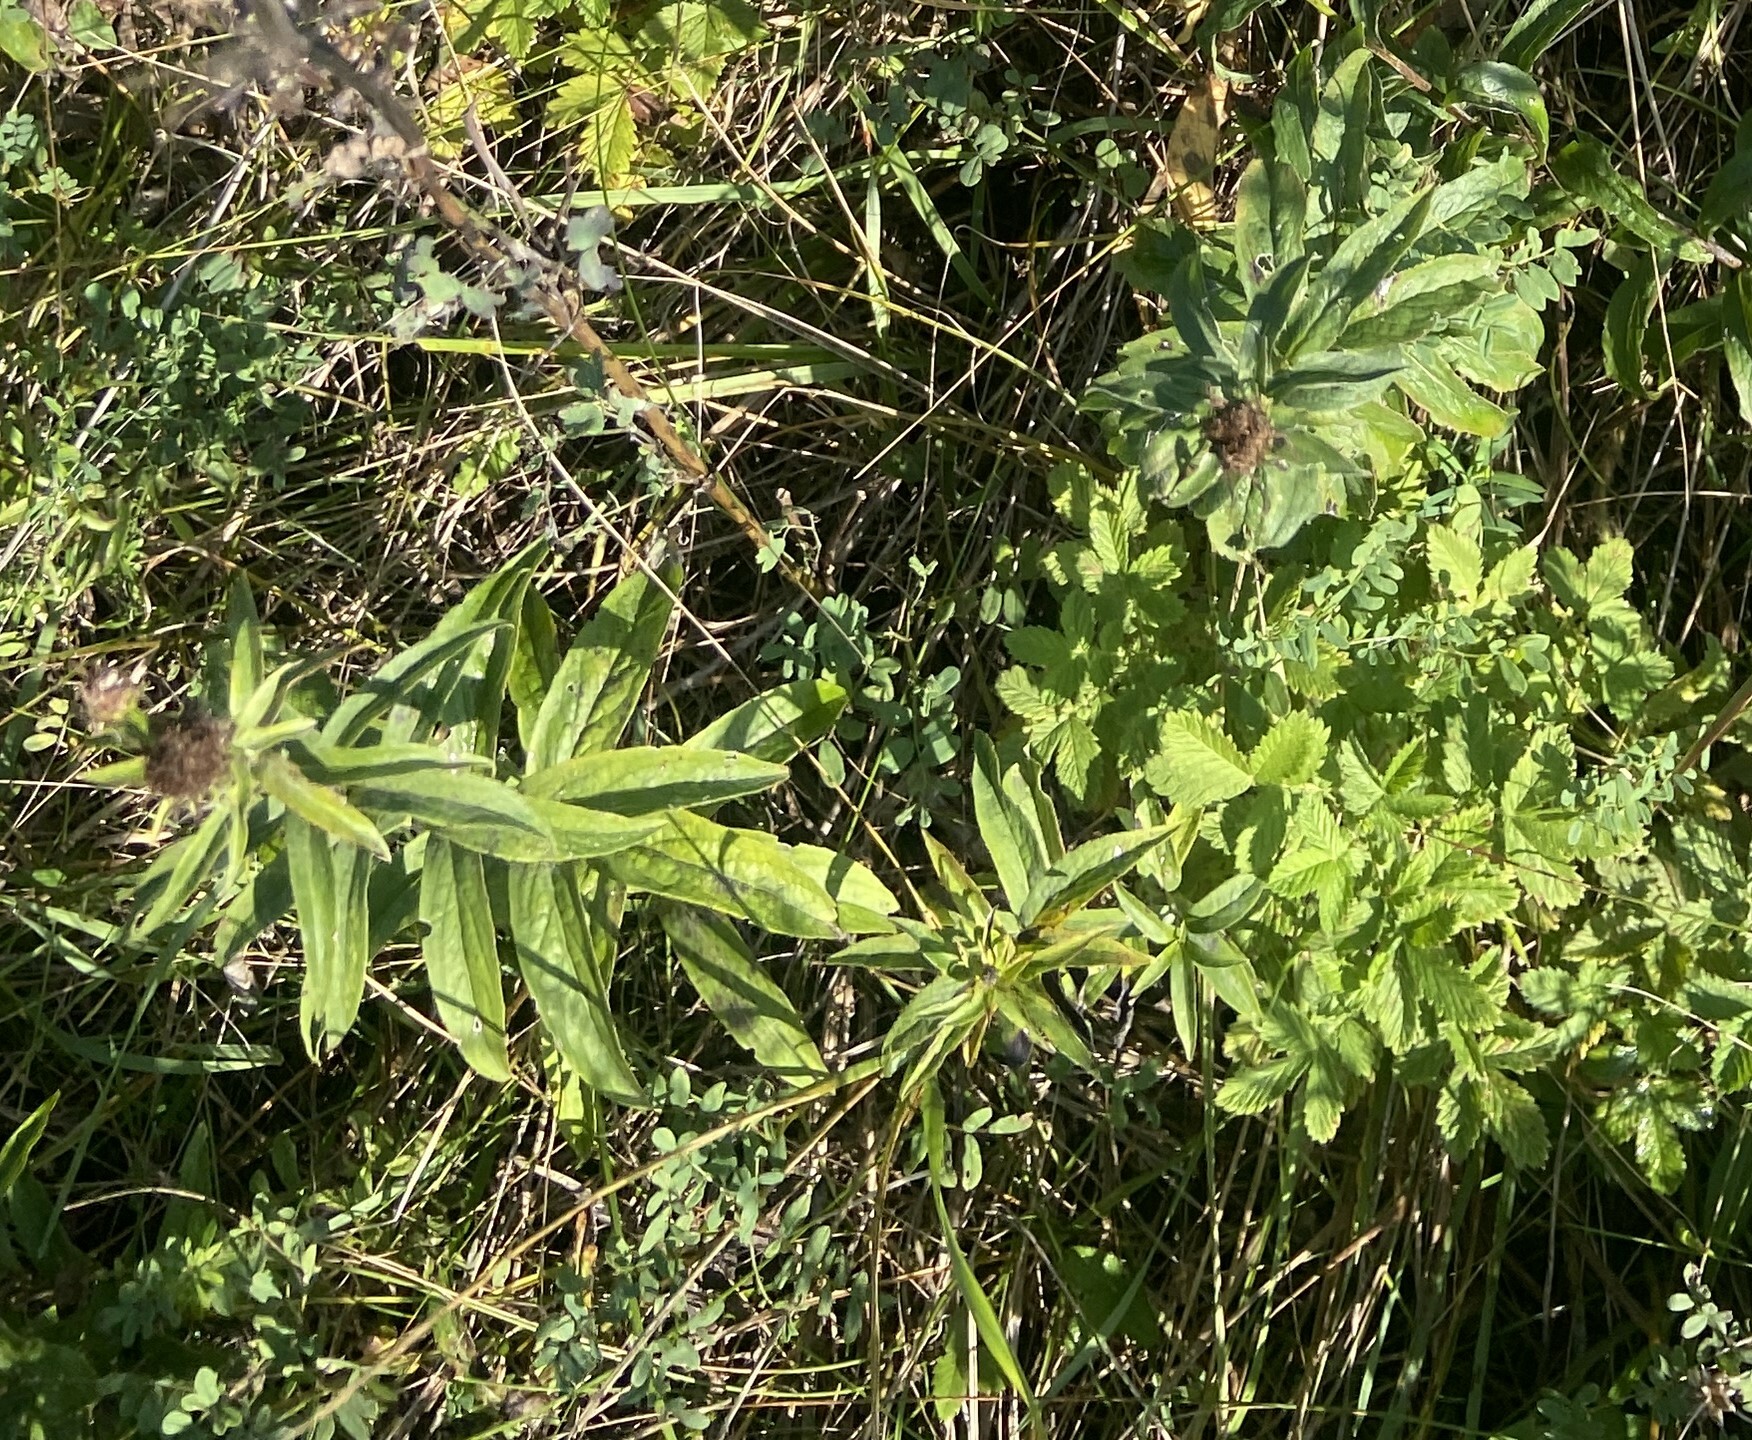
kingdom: Plantae
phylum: Tracheophyta
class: Magnoliopsida
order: Asterales
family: Asteraceae
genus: Pentanema
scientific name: Pentanema salicinum
